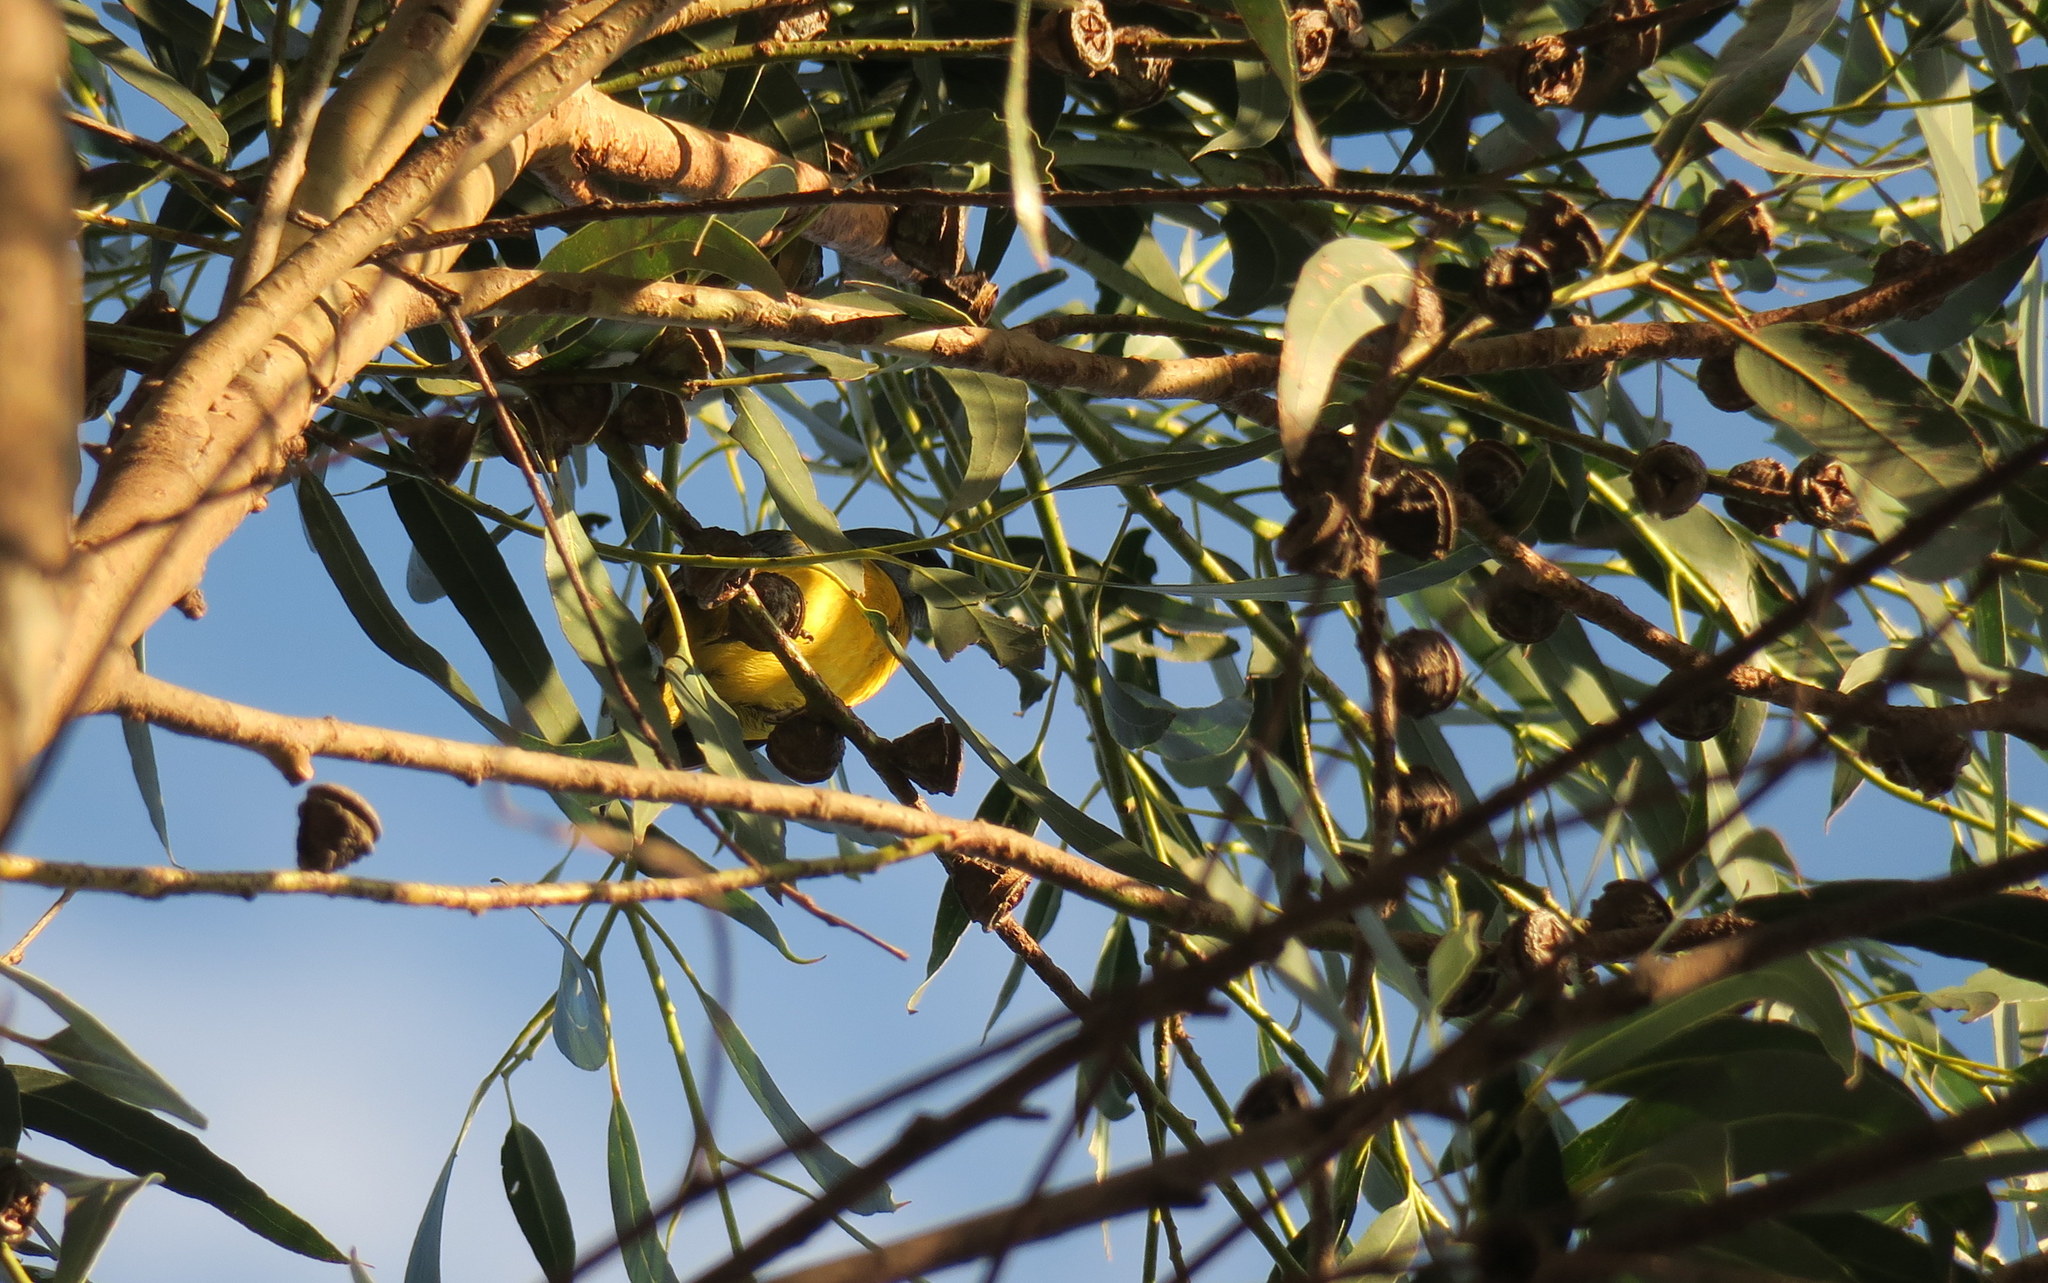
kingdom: Animalia
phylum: Chordata
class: Aves
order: Passeriformes
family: Thraupidae
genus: Rauenia
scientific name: Rauenia bonariensis
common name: Blue-and-yellow tanager
